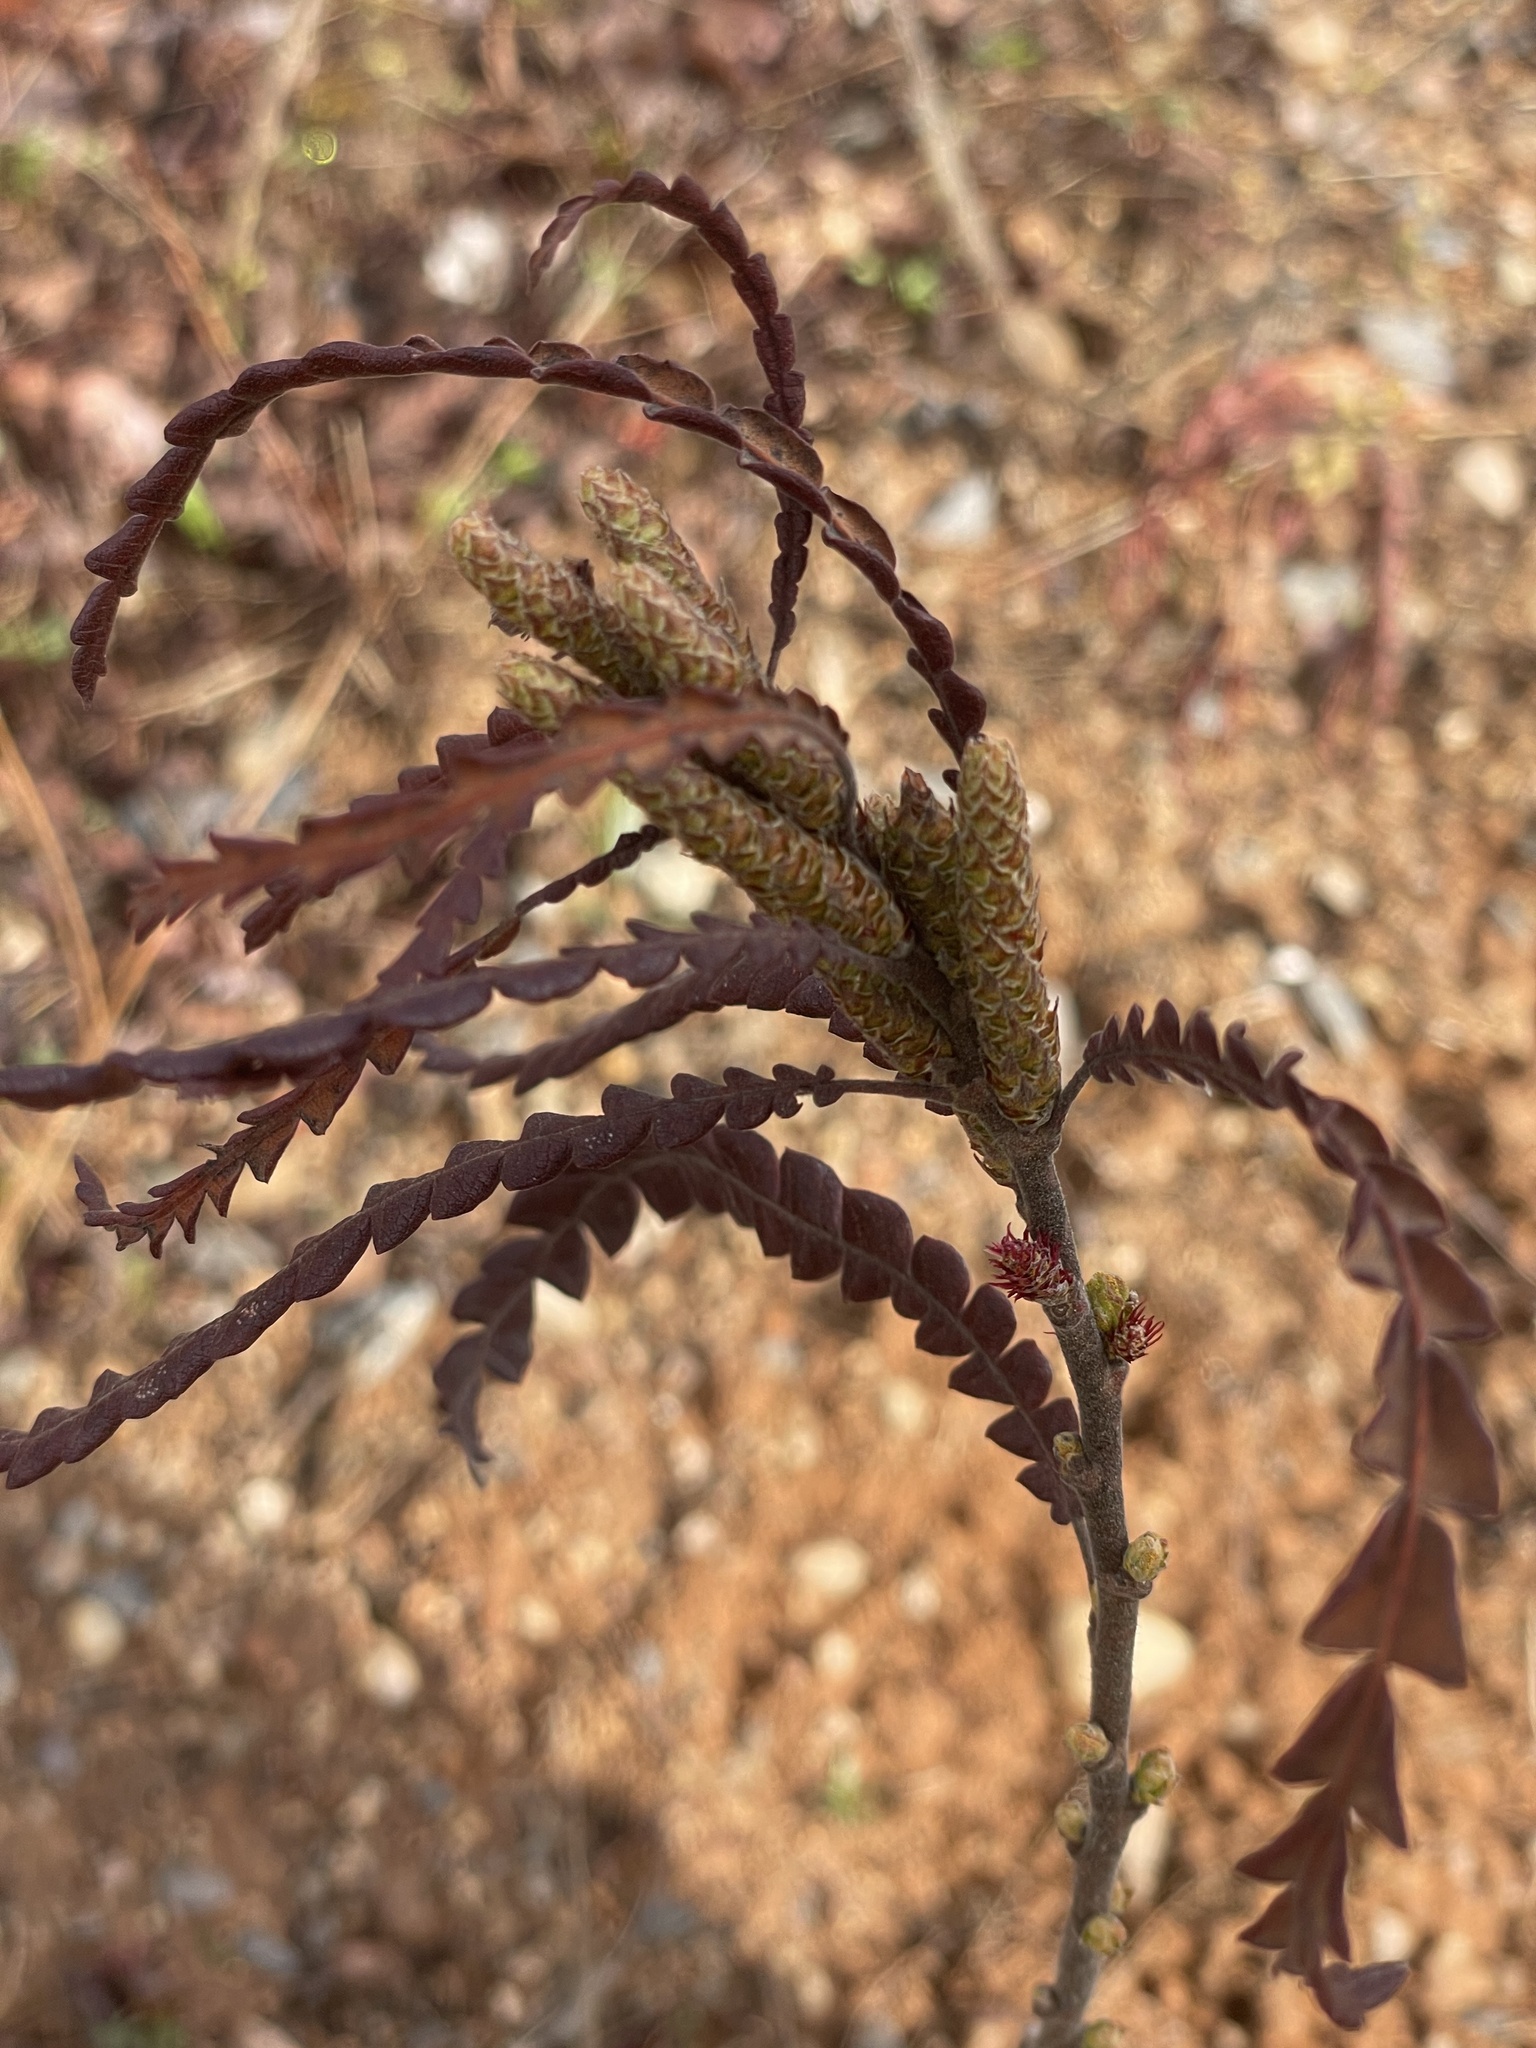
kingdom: Plantae
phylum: Tracheophyta
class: Magnoliopsida
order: Fagales
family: Myricaceae
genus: Comptonia
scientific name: Comptonia peregrina
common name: Sweet-fern
